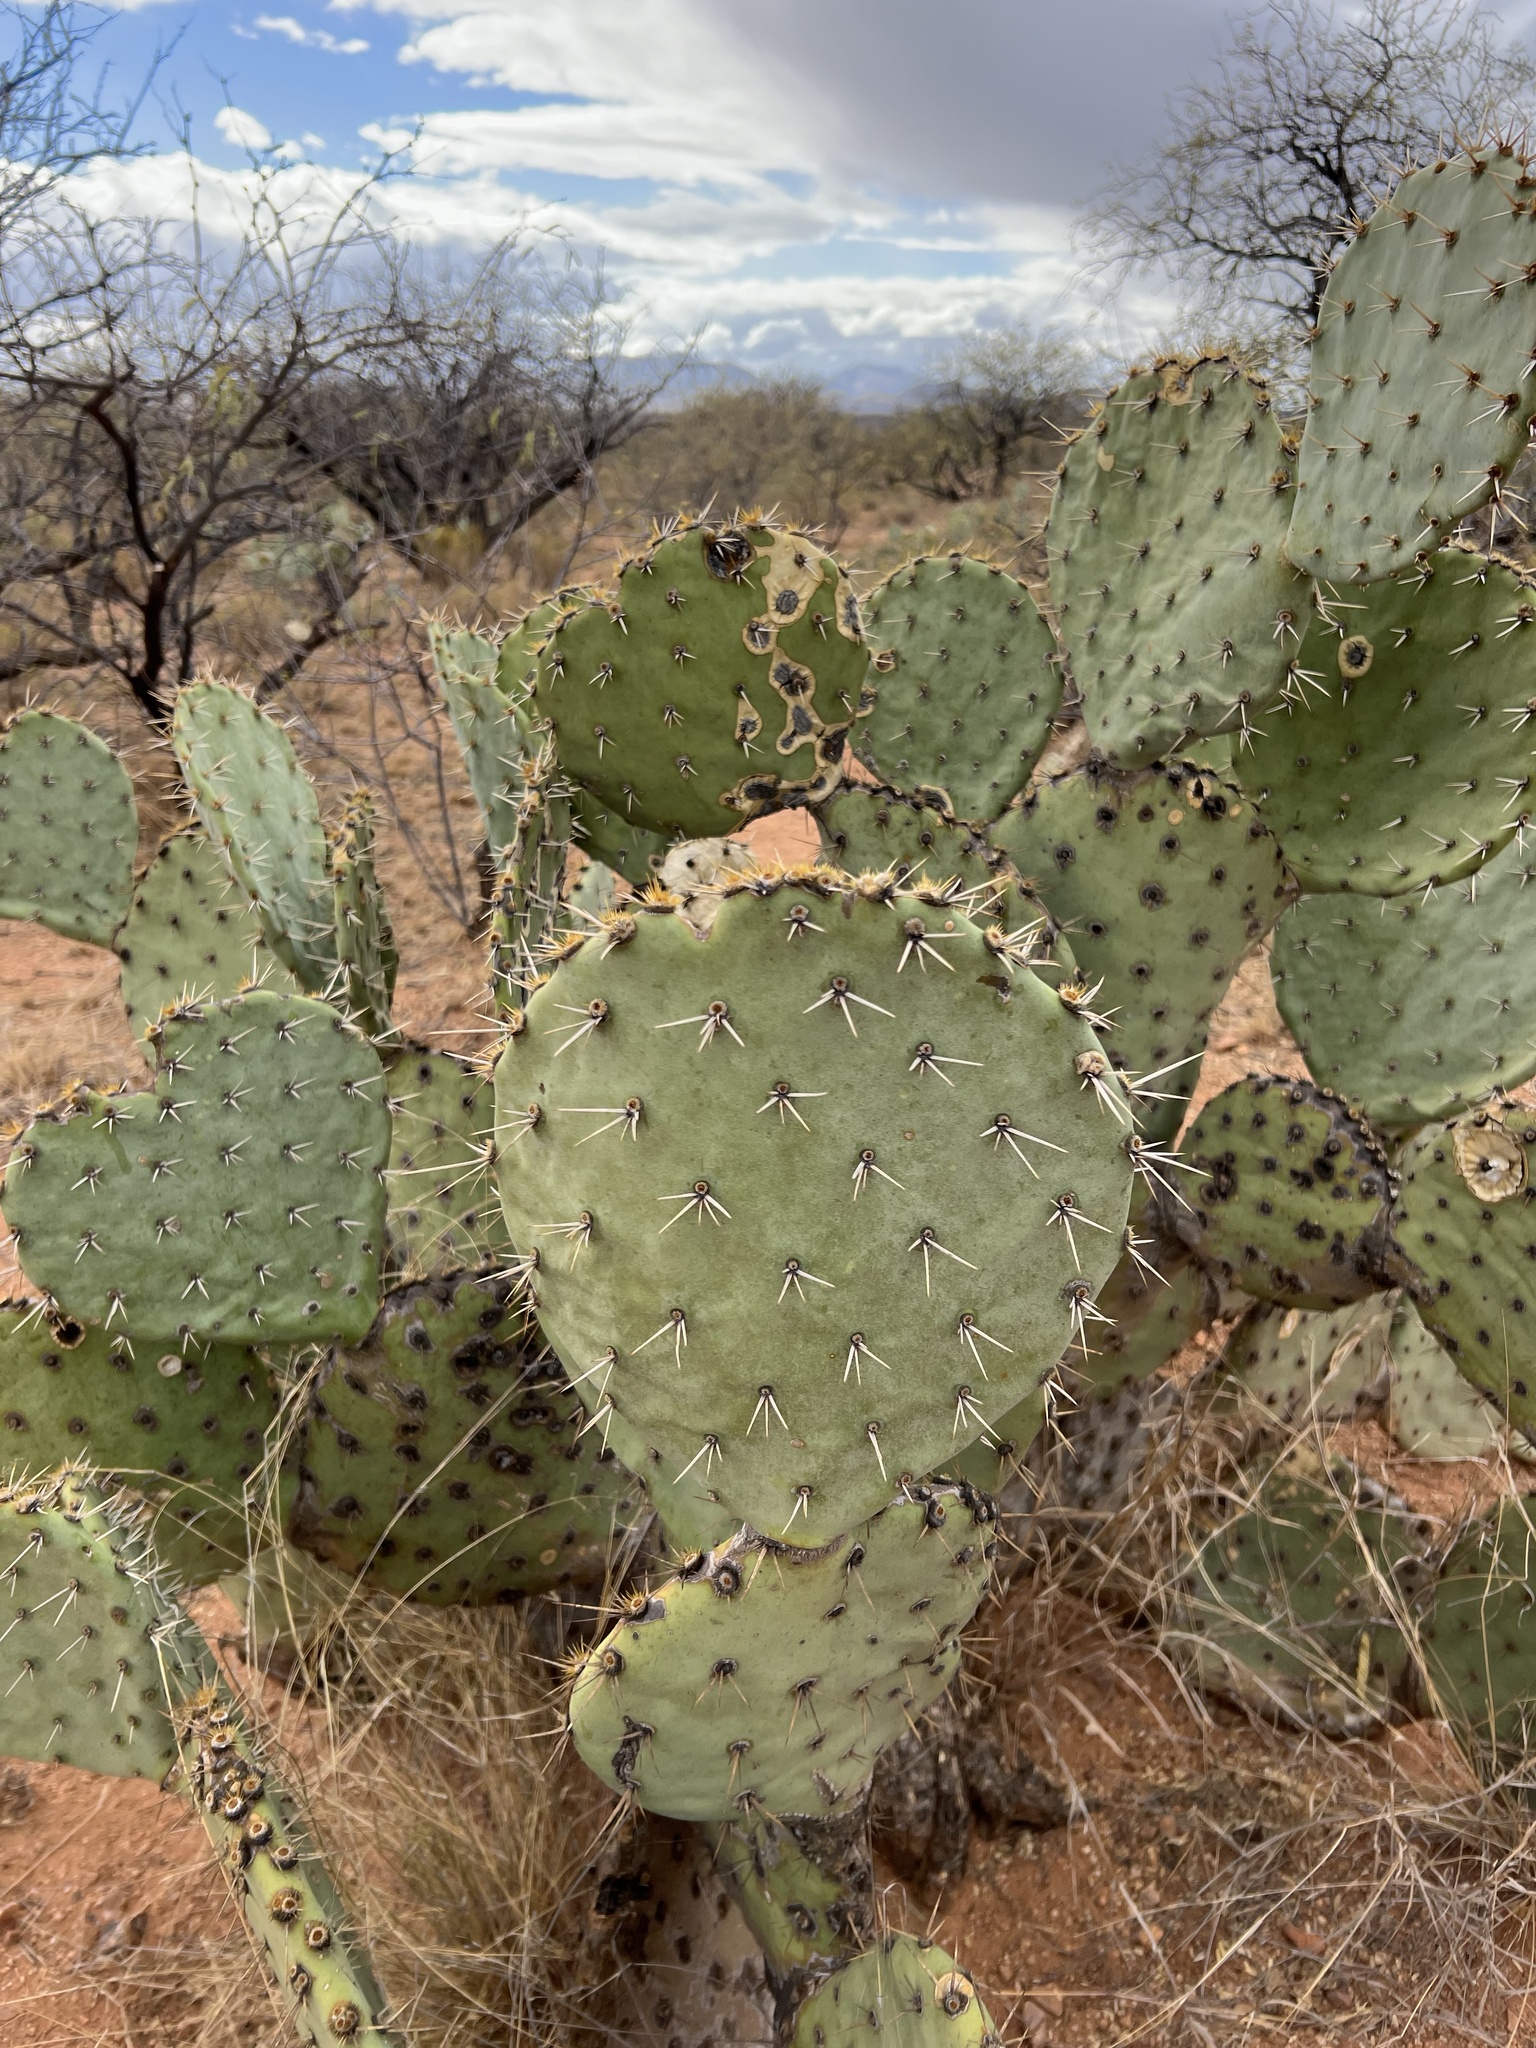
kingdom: Plantae
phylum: Tracheophyta
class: Magnoliopsida
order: Caryophyllales
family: Cactaceae
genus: Opuntia
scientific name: Opuntia engelmannii
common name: Cactus-apple
